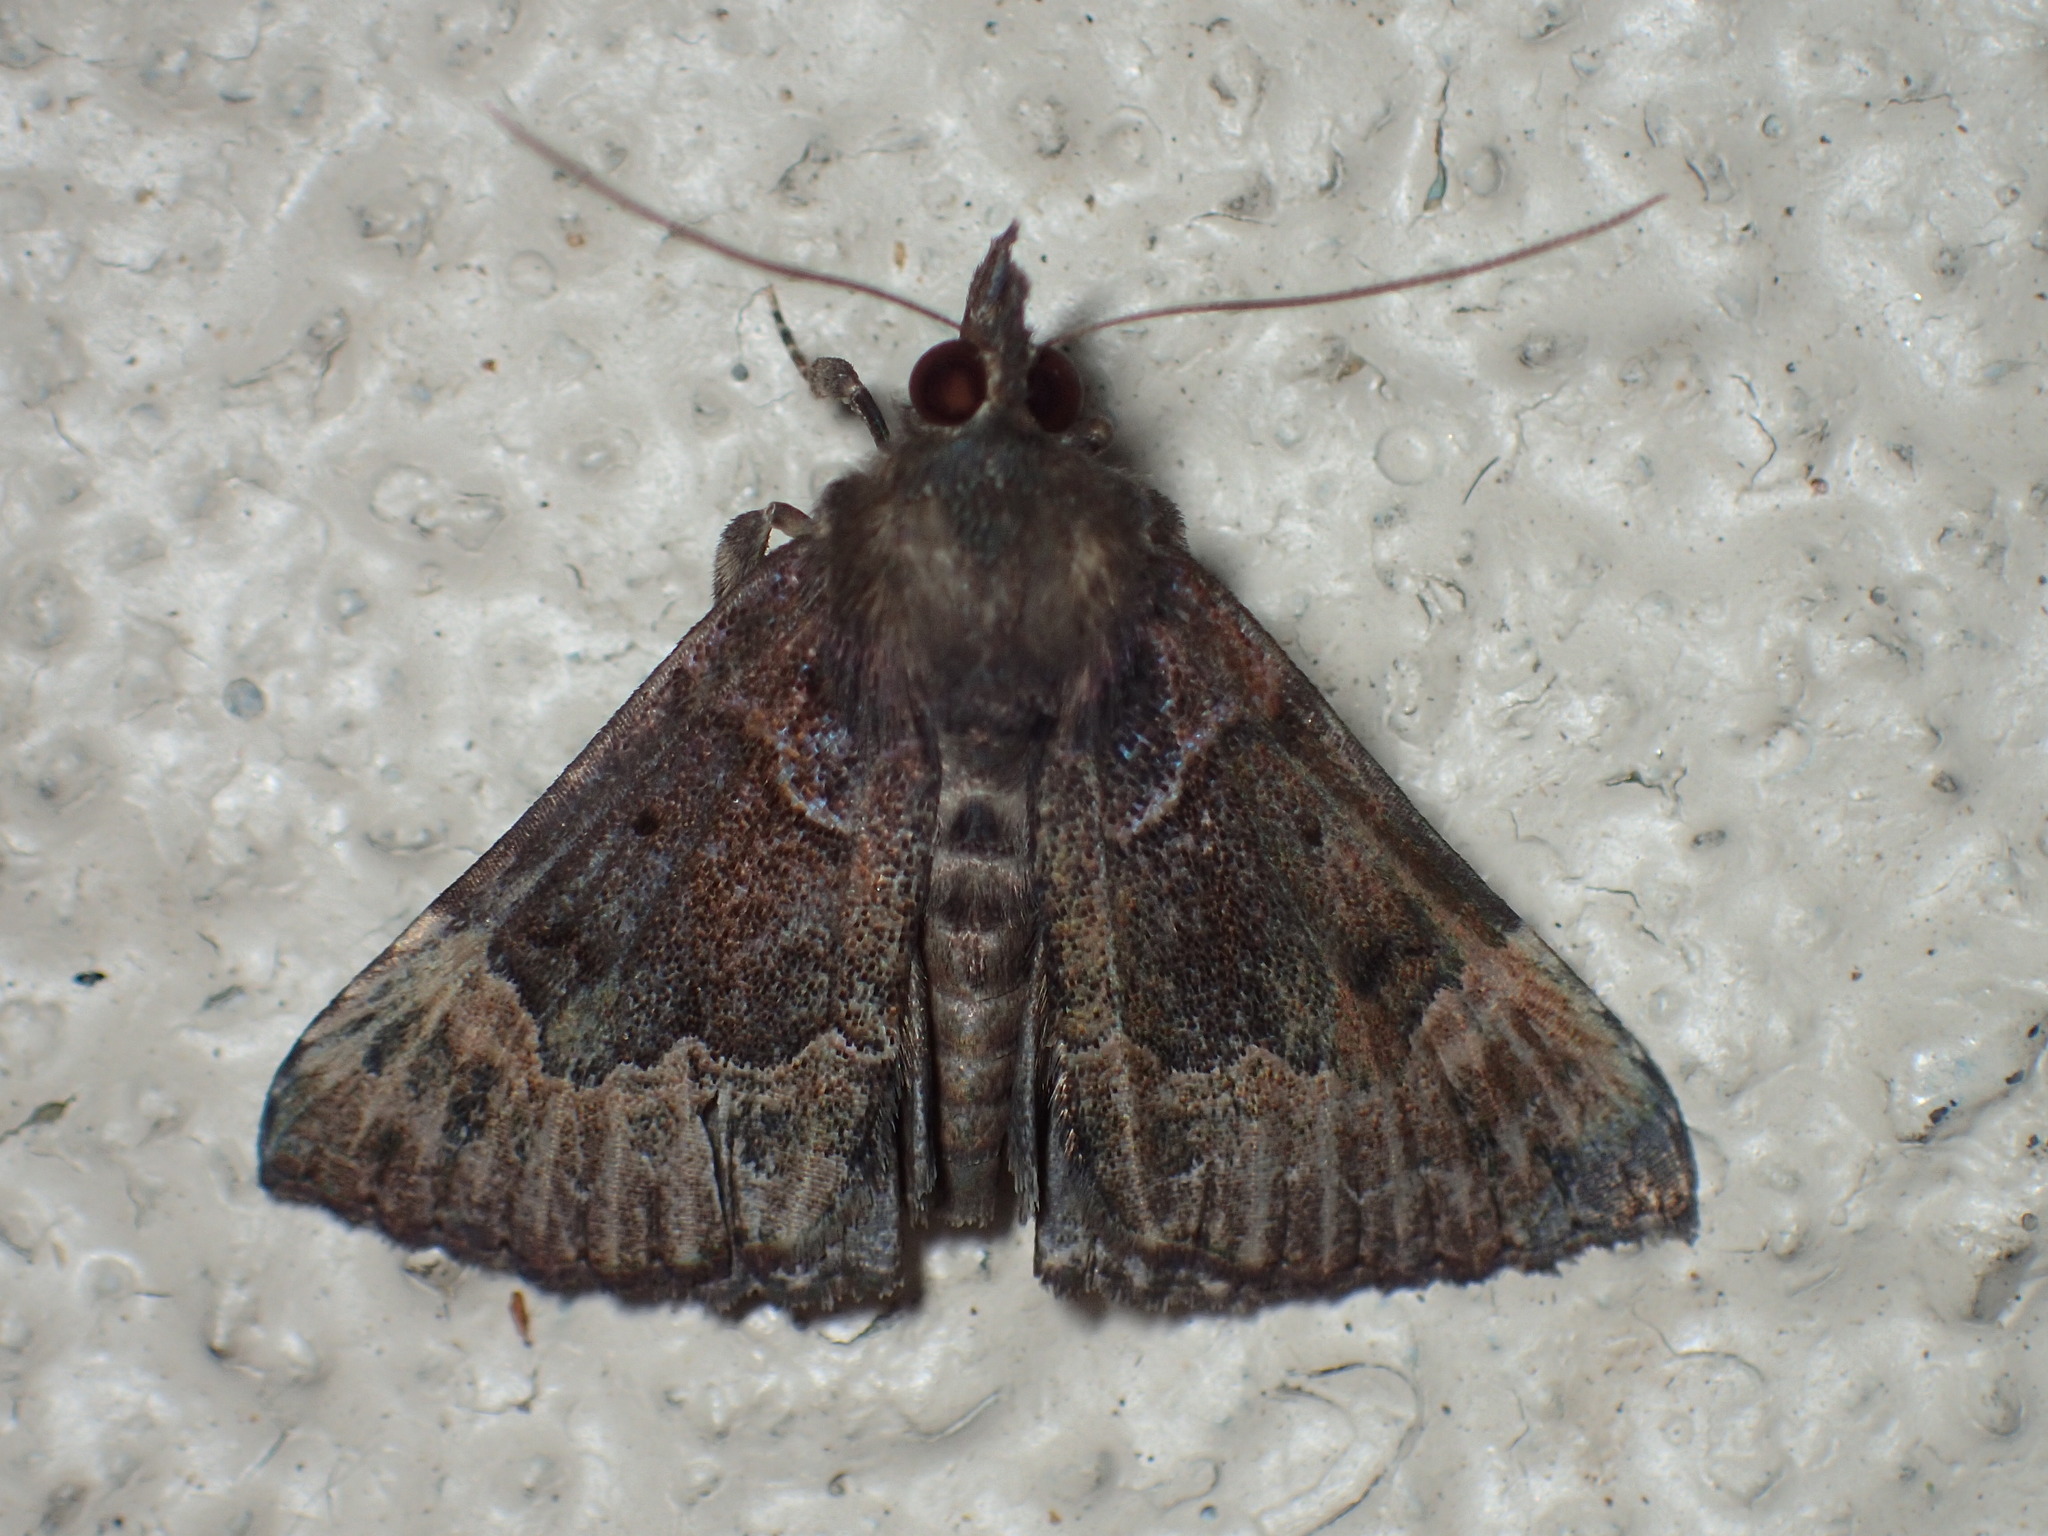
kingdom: Animalia
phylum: Arthropoda
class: Insecta
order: Lepidoptera
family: Erebidae
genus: Hypena
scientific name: Hypena palparia
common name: Mottled bomolocha moth
